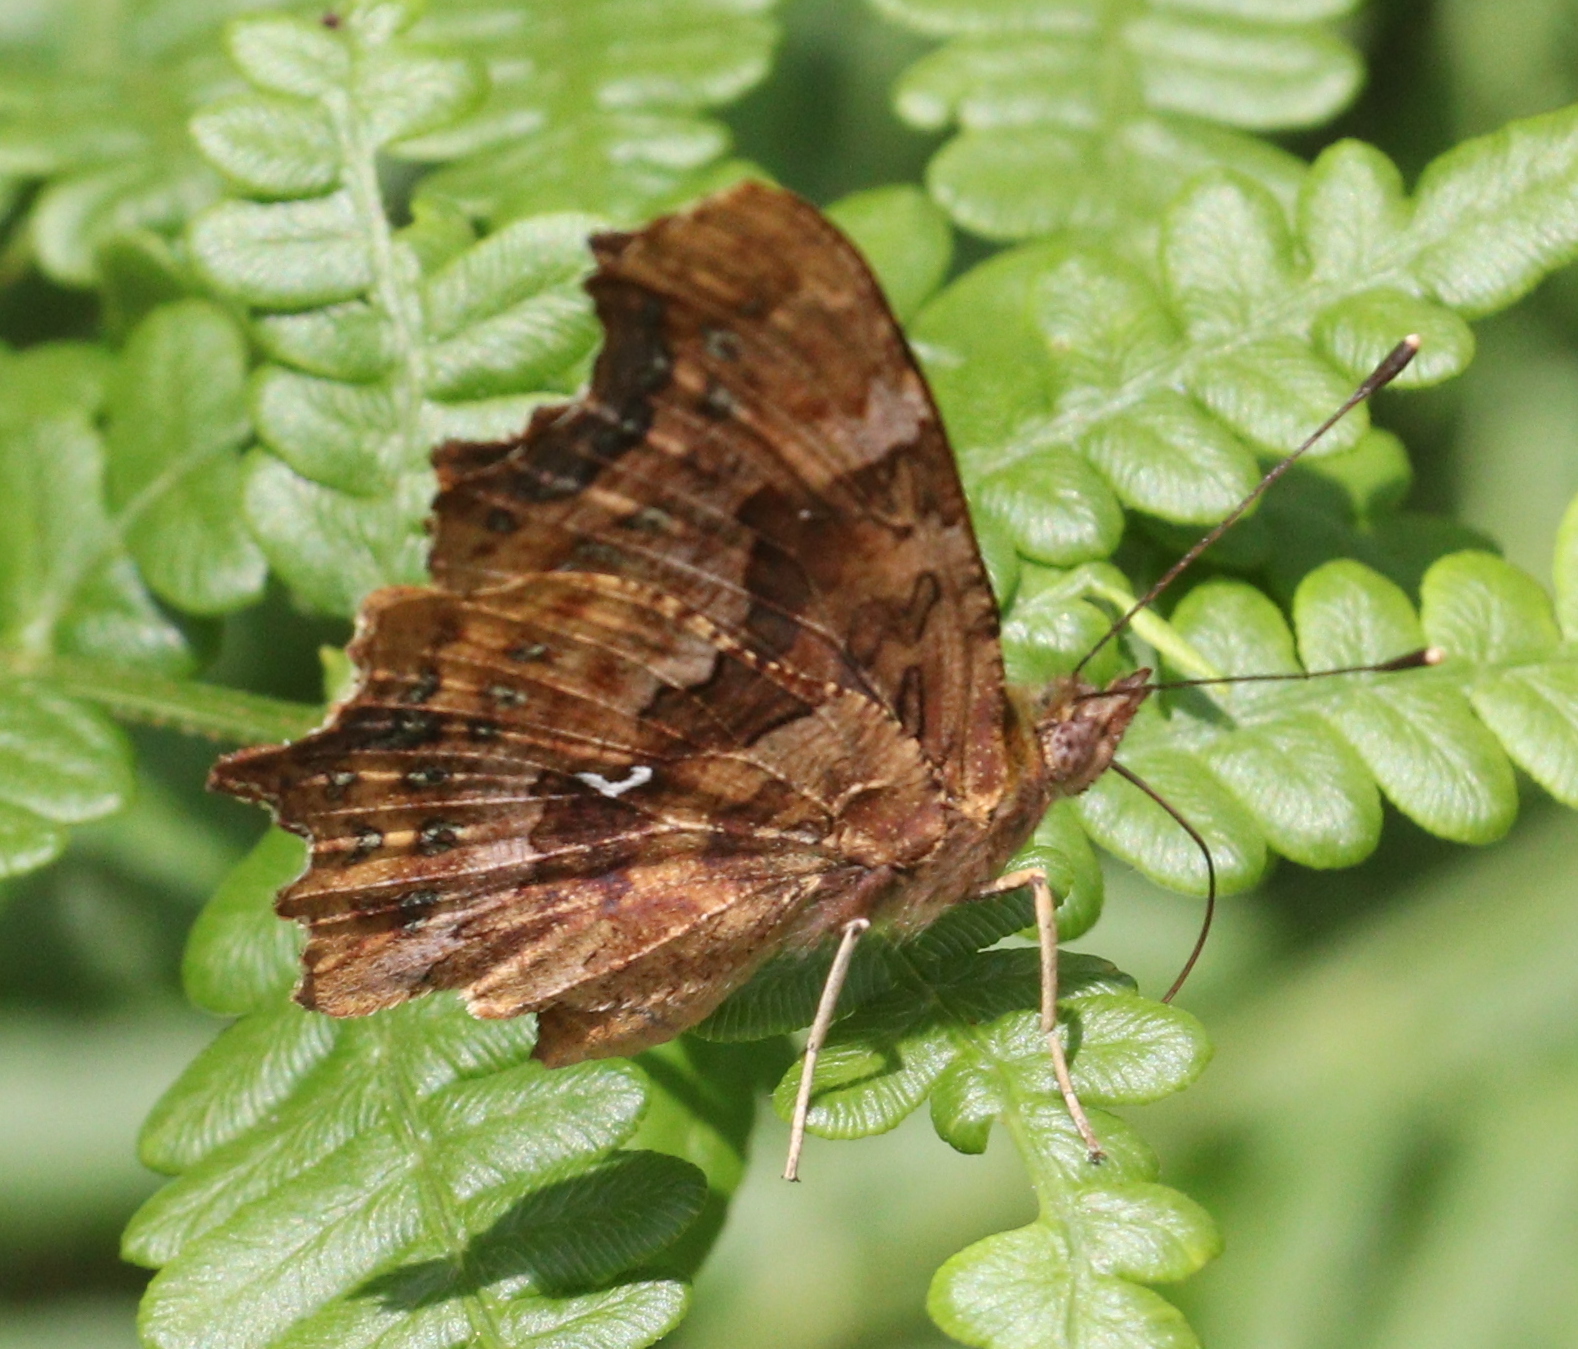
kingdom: Animalia
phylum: Arthropoda
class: Insecta
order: Lepidoptera
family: Nymphalidae
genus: Polygonia
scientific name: Polygonia c-album
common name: Comma
